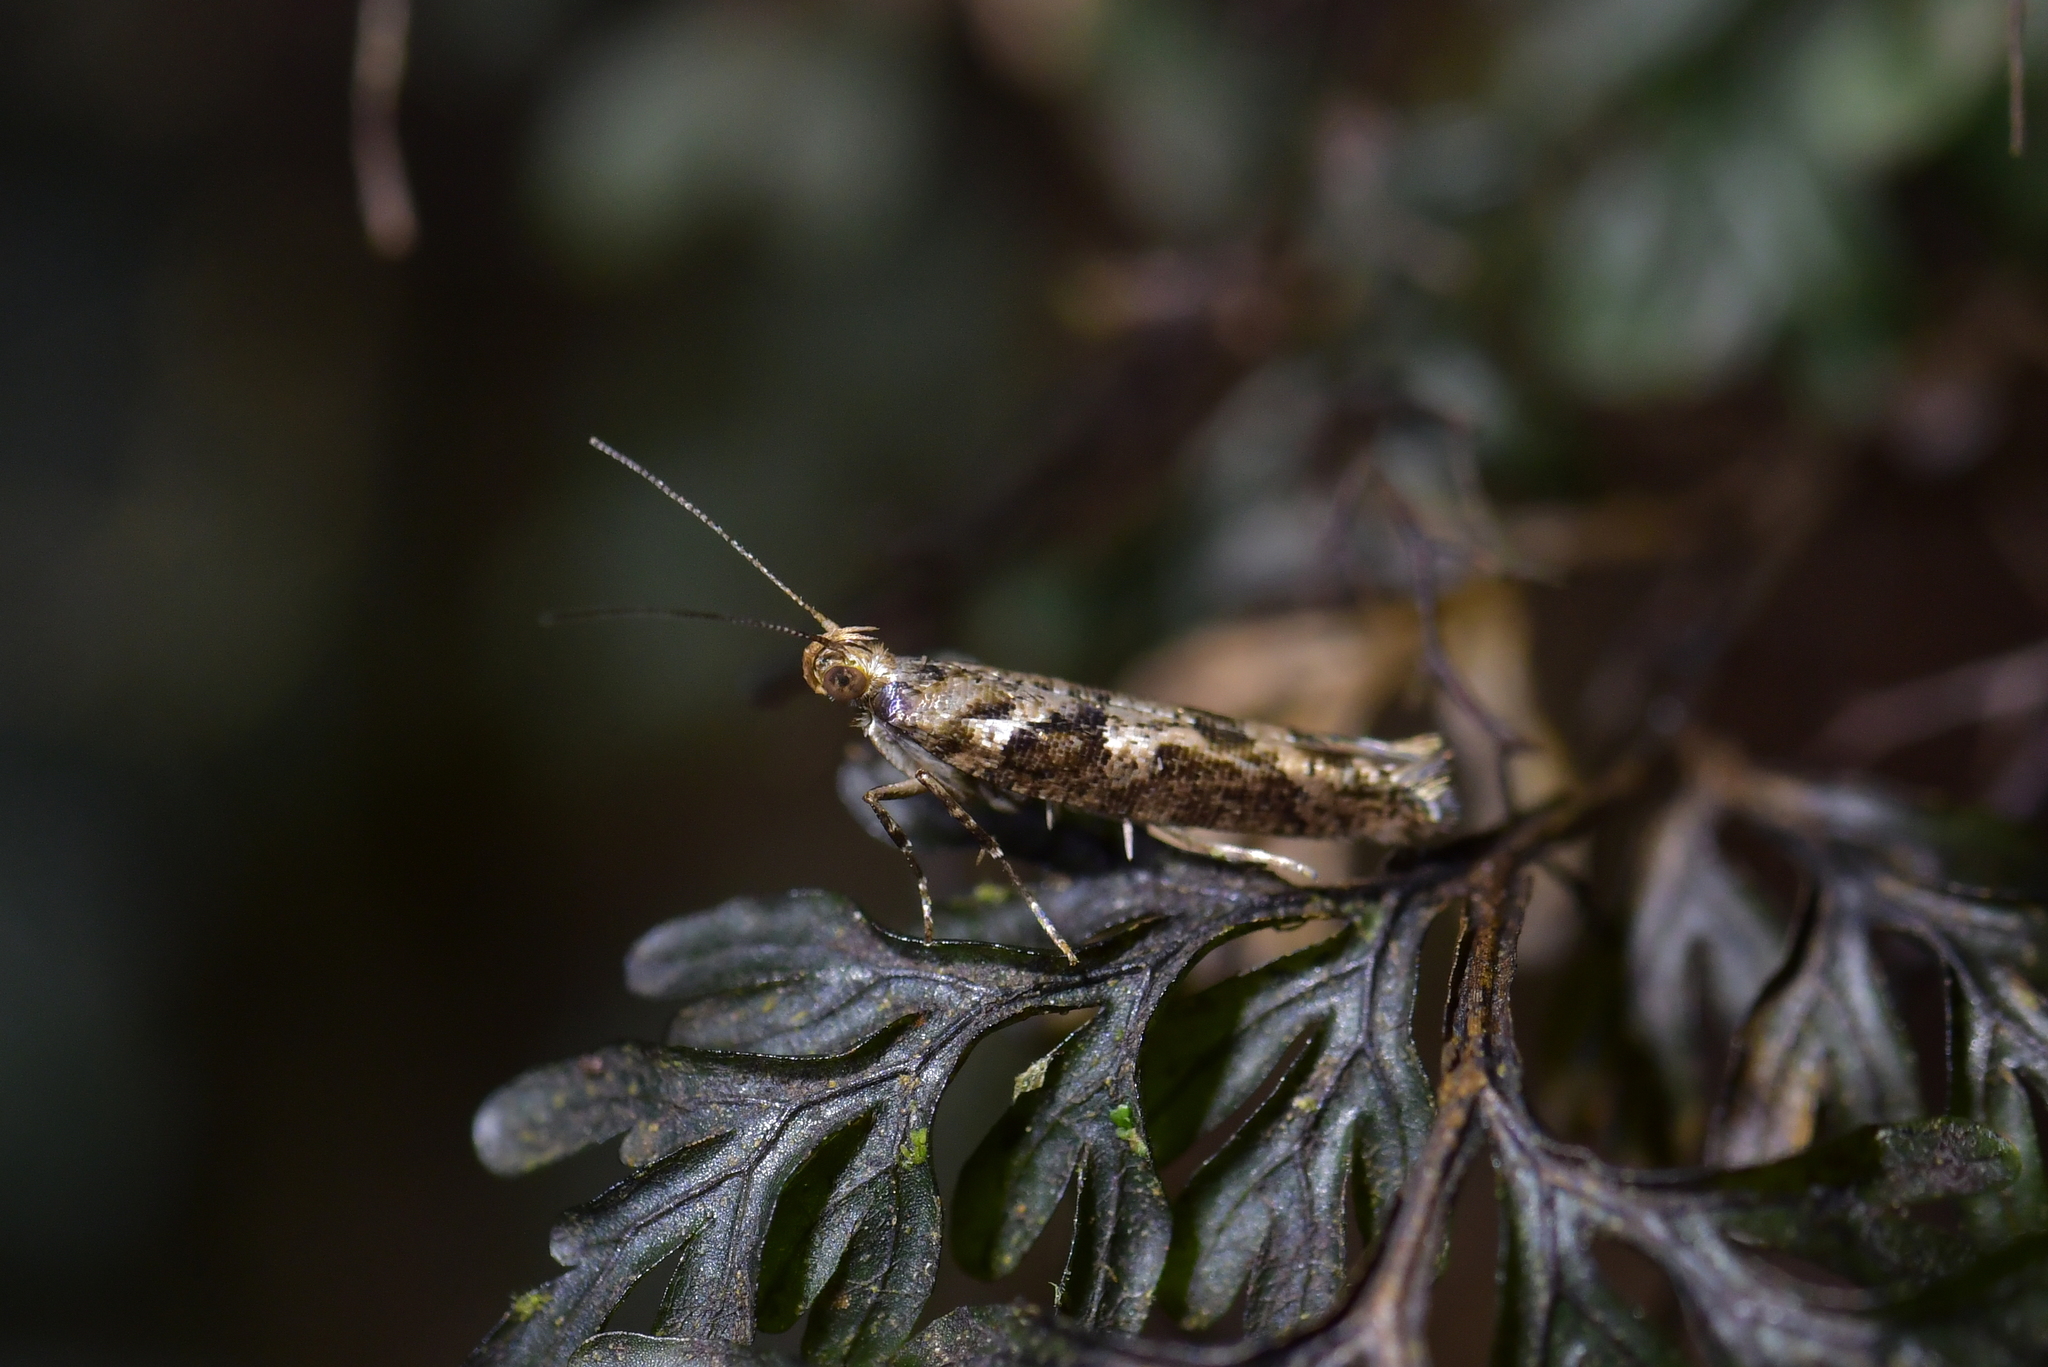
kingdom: Animalia
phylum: Arthropoda
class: Insecta
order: Lepidoptera
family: Glyphipterigidae
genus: Chrysorthenches
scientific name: Chrysorthenches porphyritis
